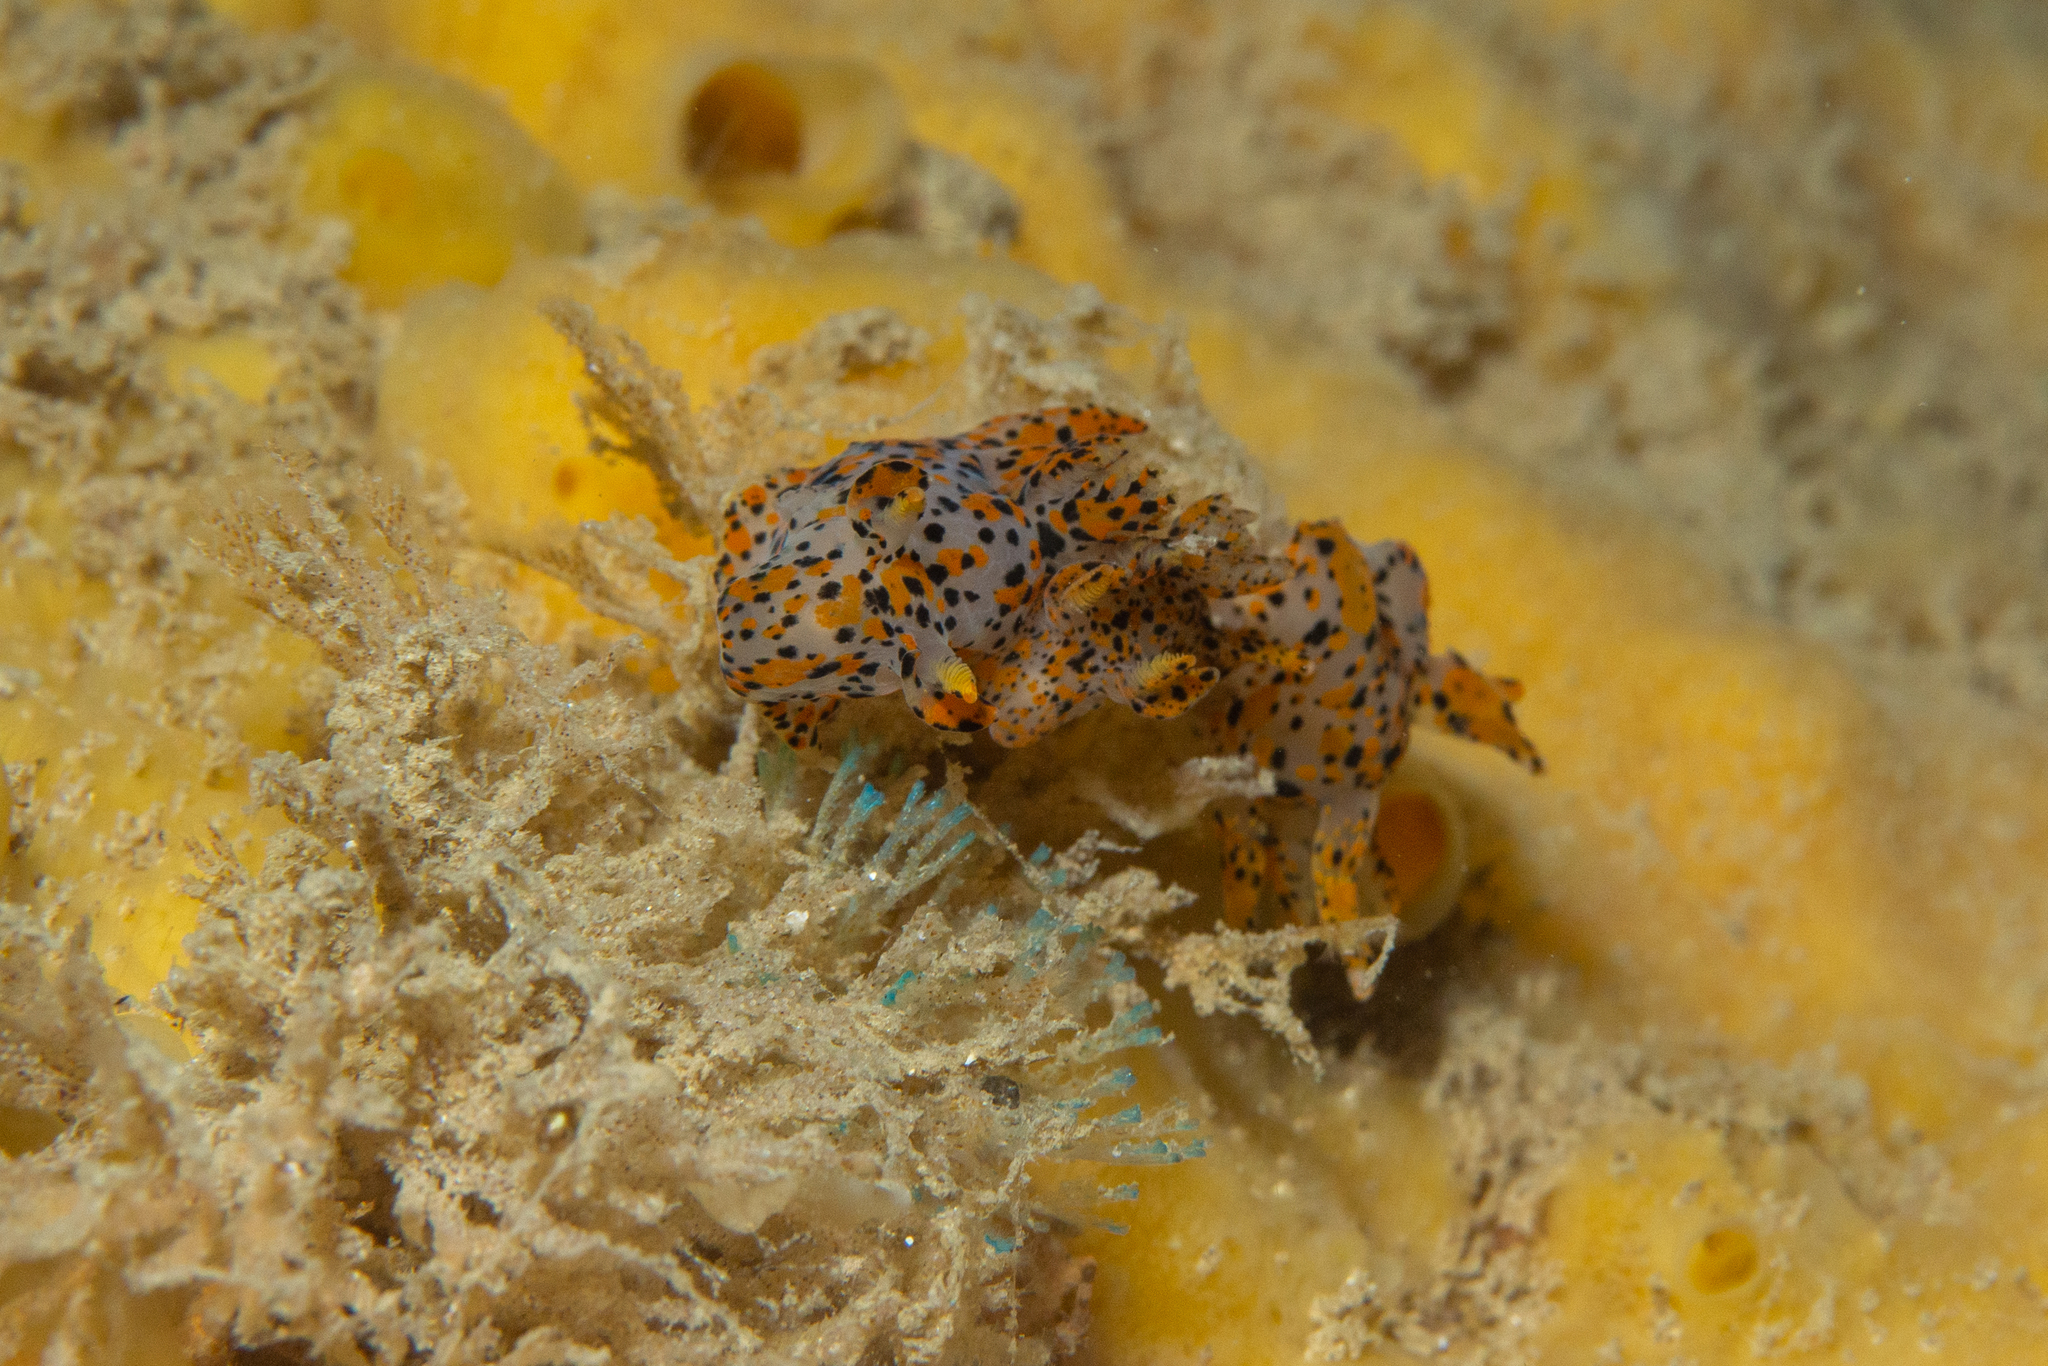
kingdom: Animalia
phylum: Mollusca
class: Gastropoda
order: Nudibranchia
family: Polyceridae
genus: Thecacera
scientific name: Thecacera pennigera
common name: Thecacera
